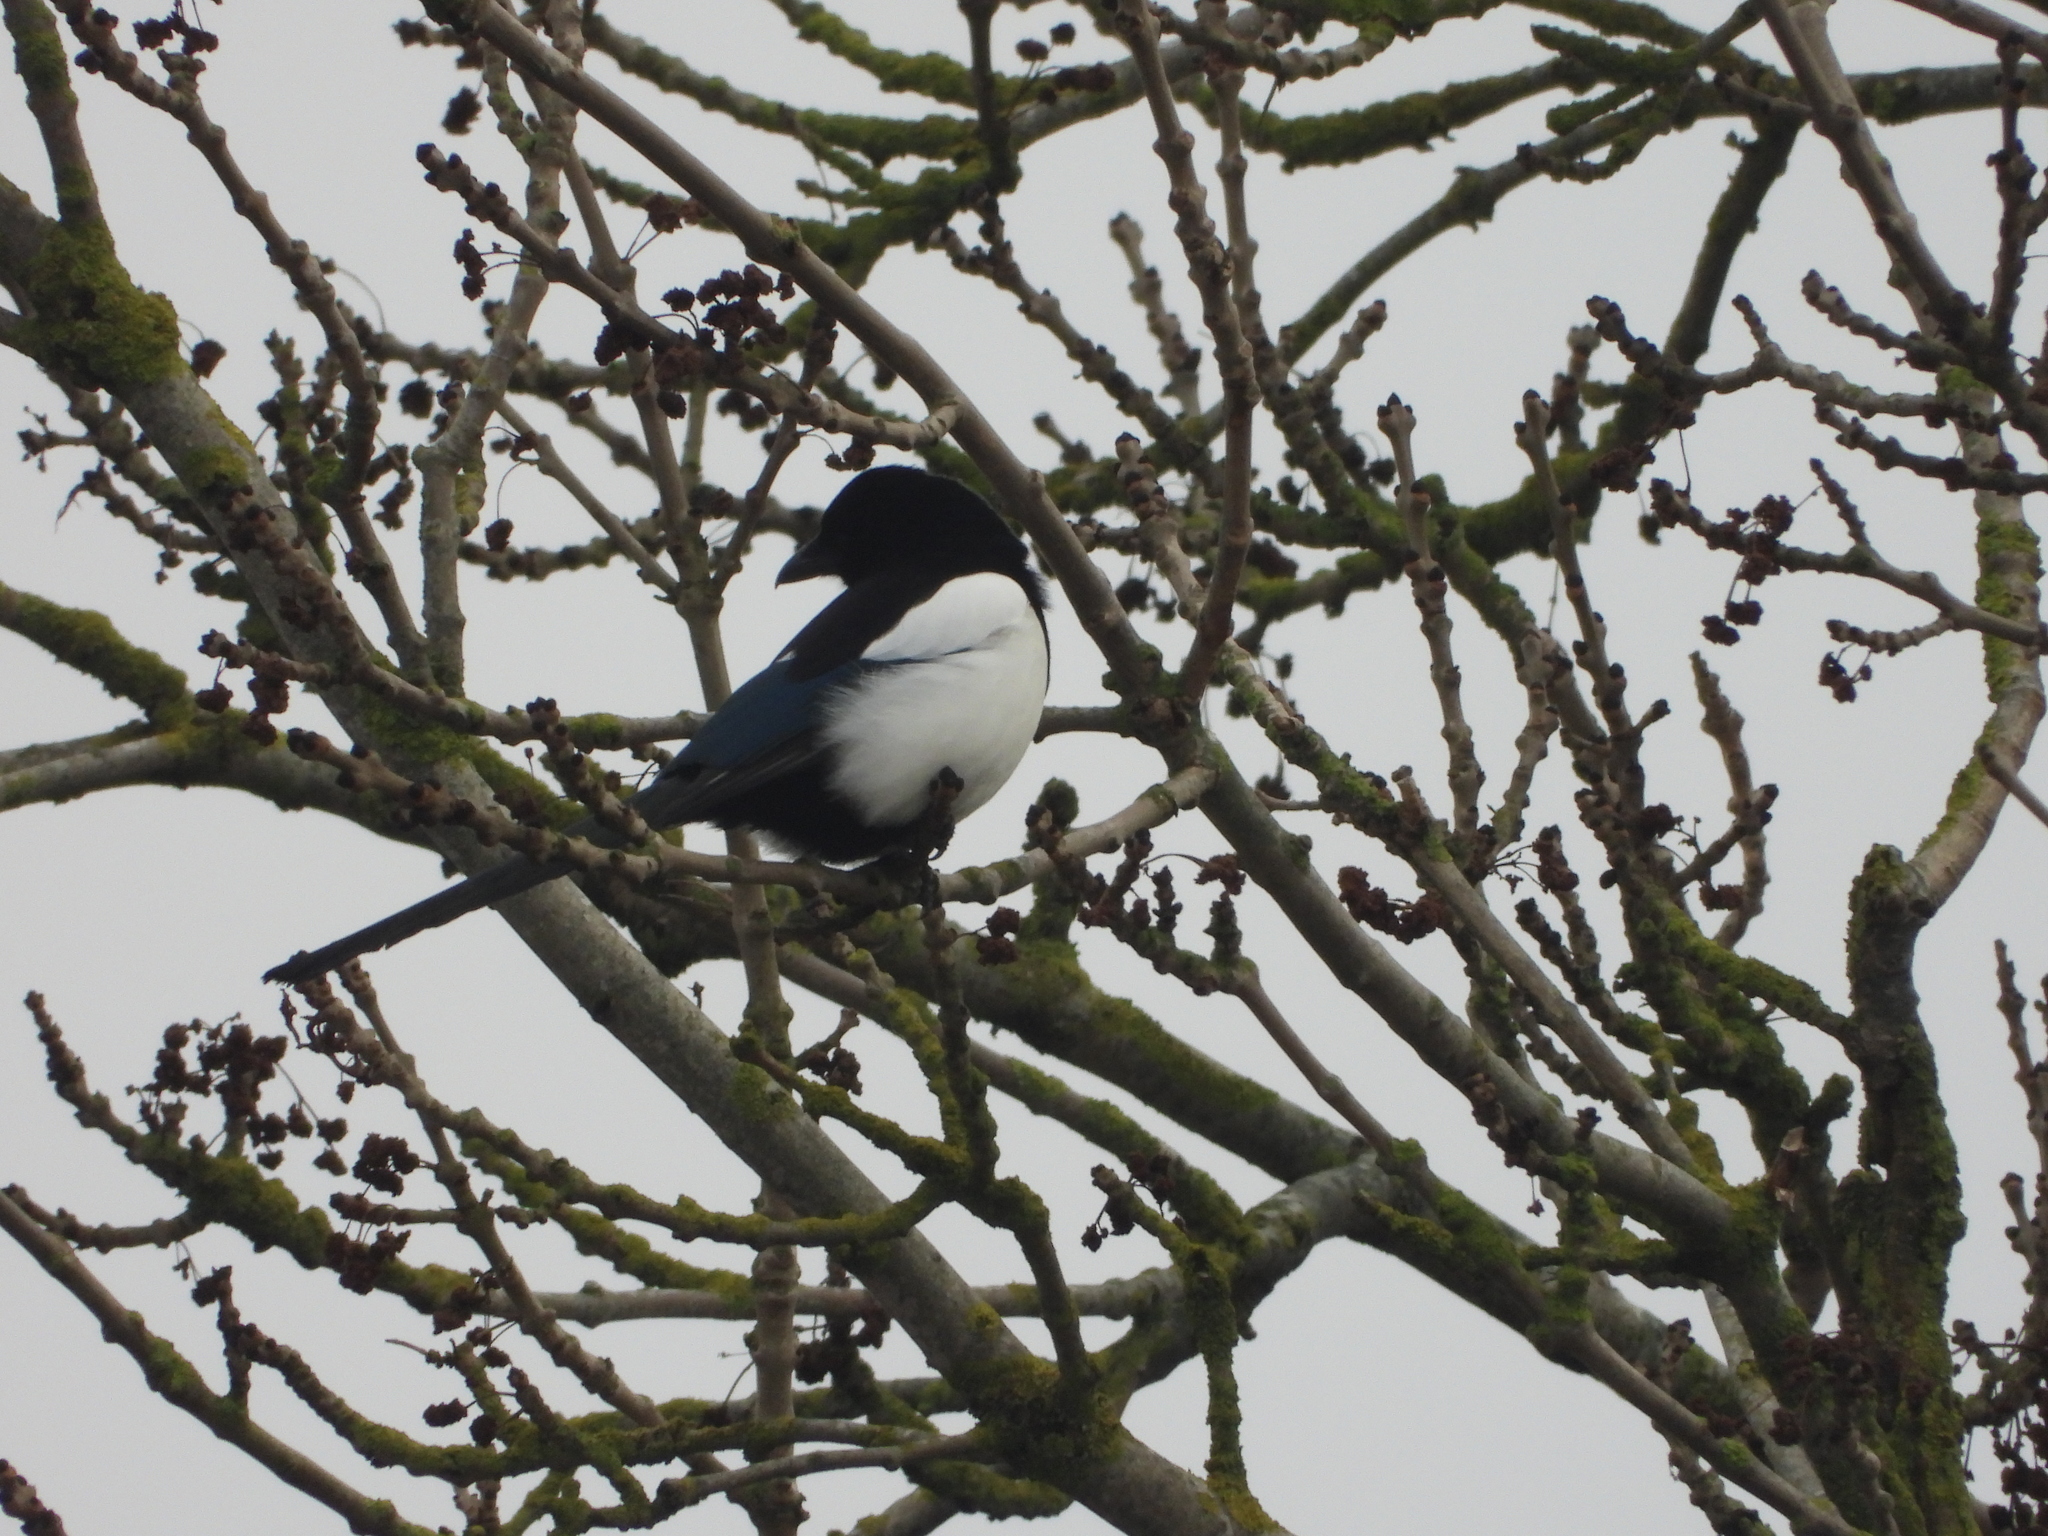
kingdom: Animalia
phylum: Chordata
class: Aves
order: Passeriformes
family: Corvidae
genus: Pica
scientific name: Pica pica
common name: Eurasian magpie
